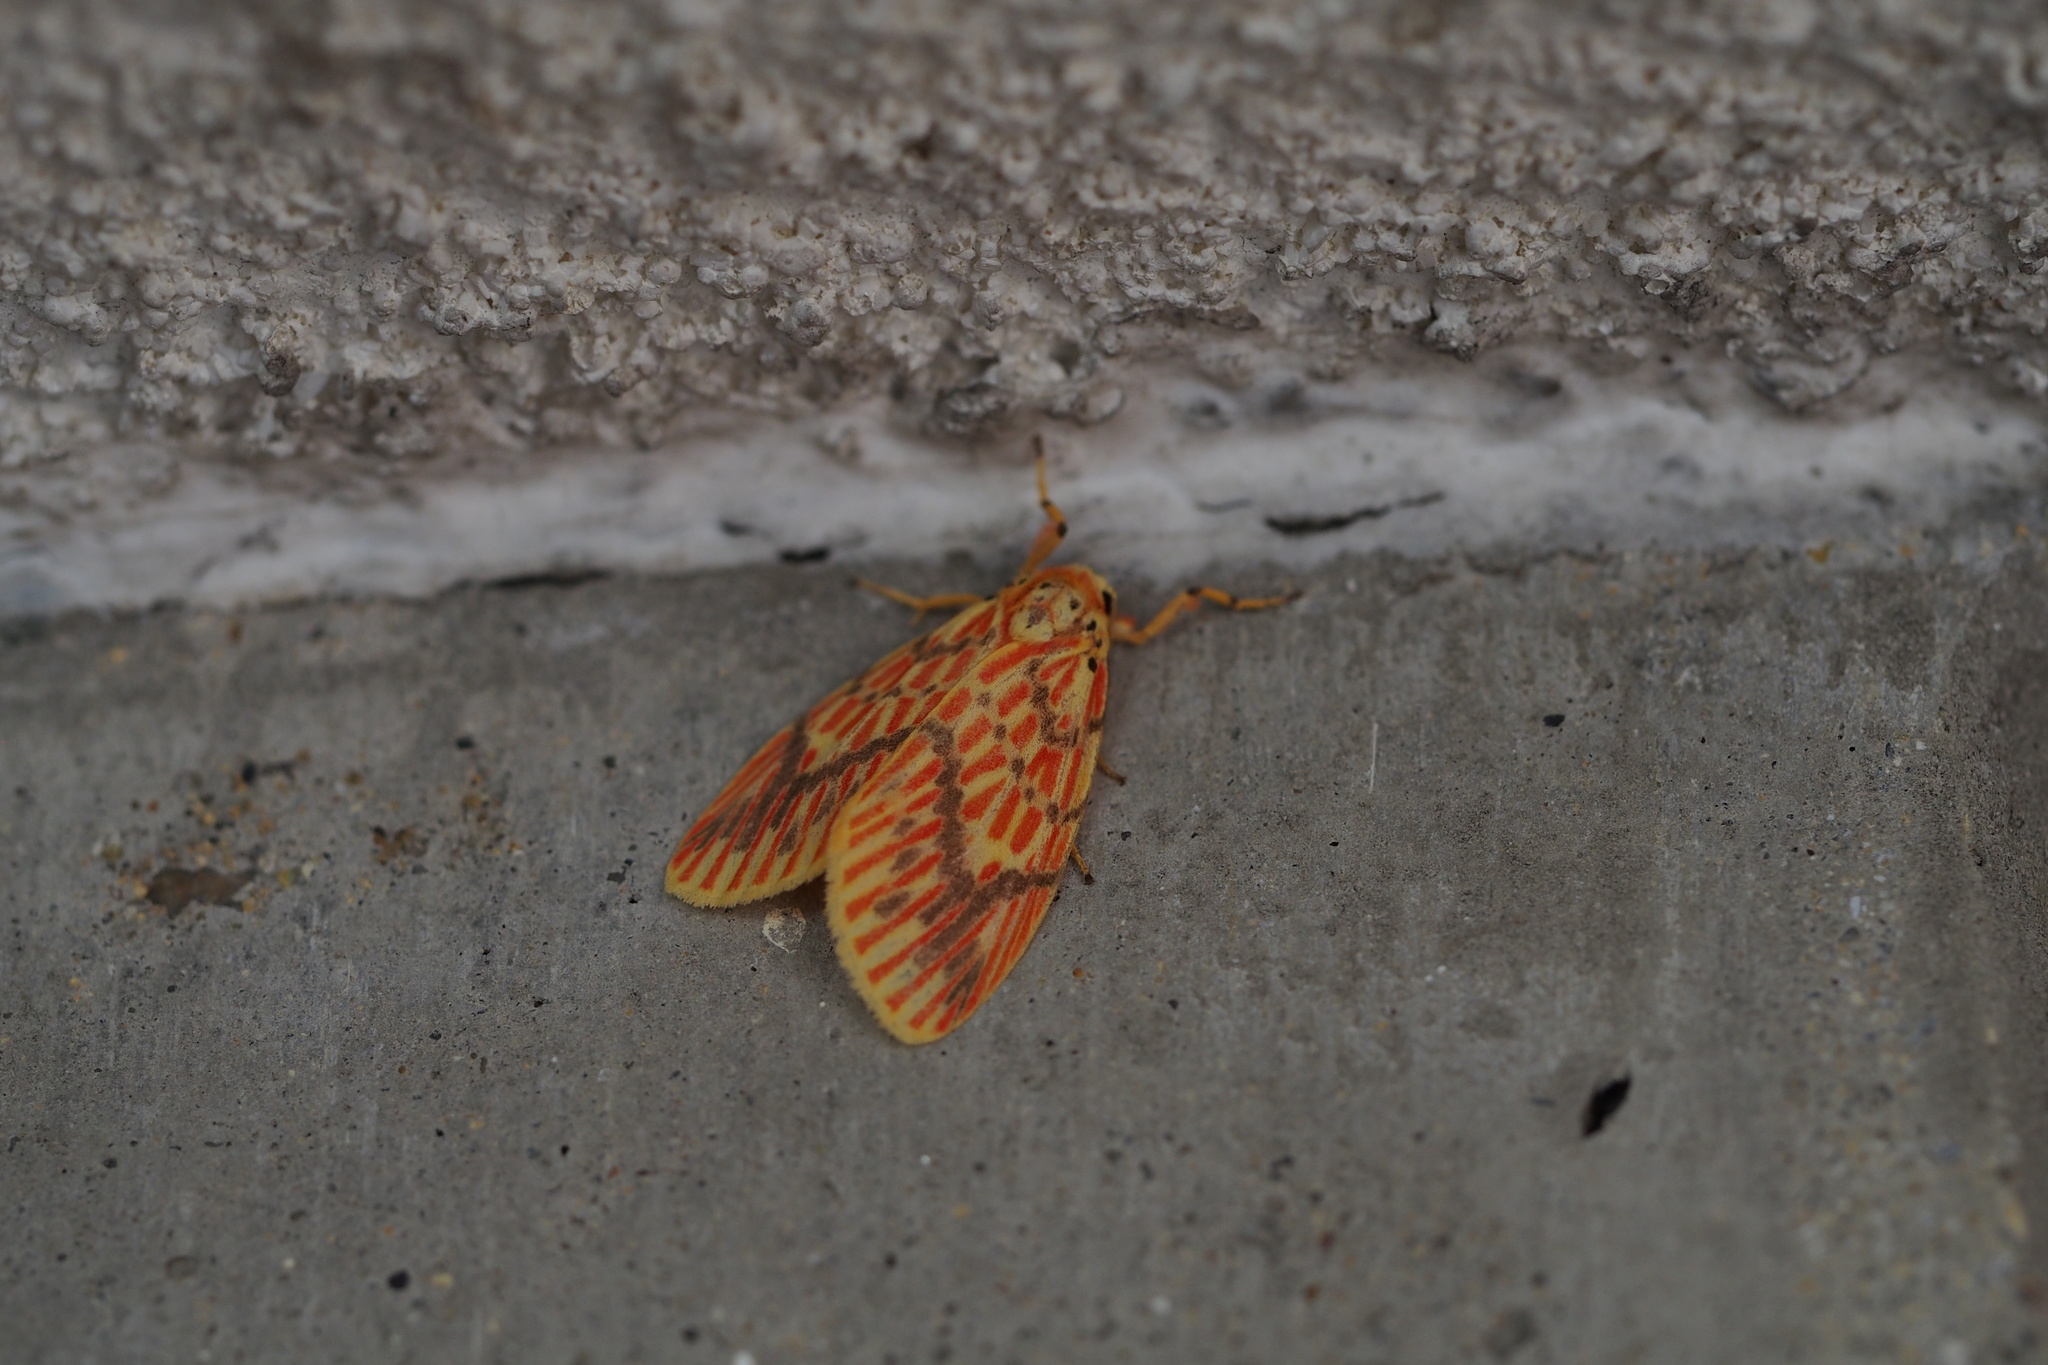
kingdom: Animalia
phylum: Arthropoda
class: Insecta
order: Lepidoptera
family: Erebidae
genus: Barsine
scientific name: Barsine striata
